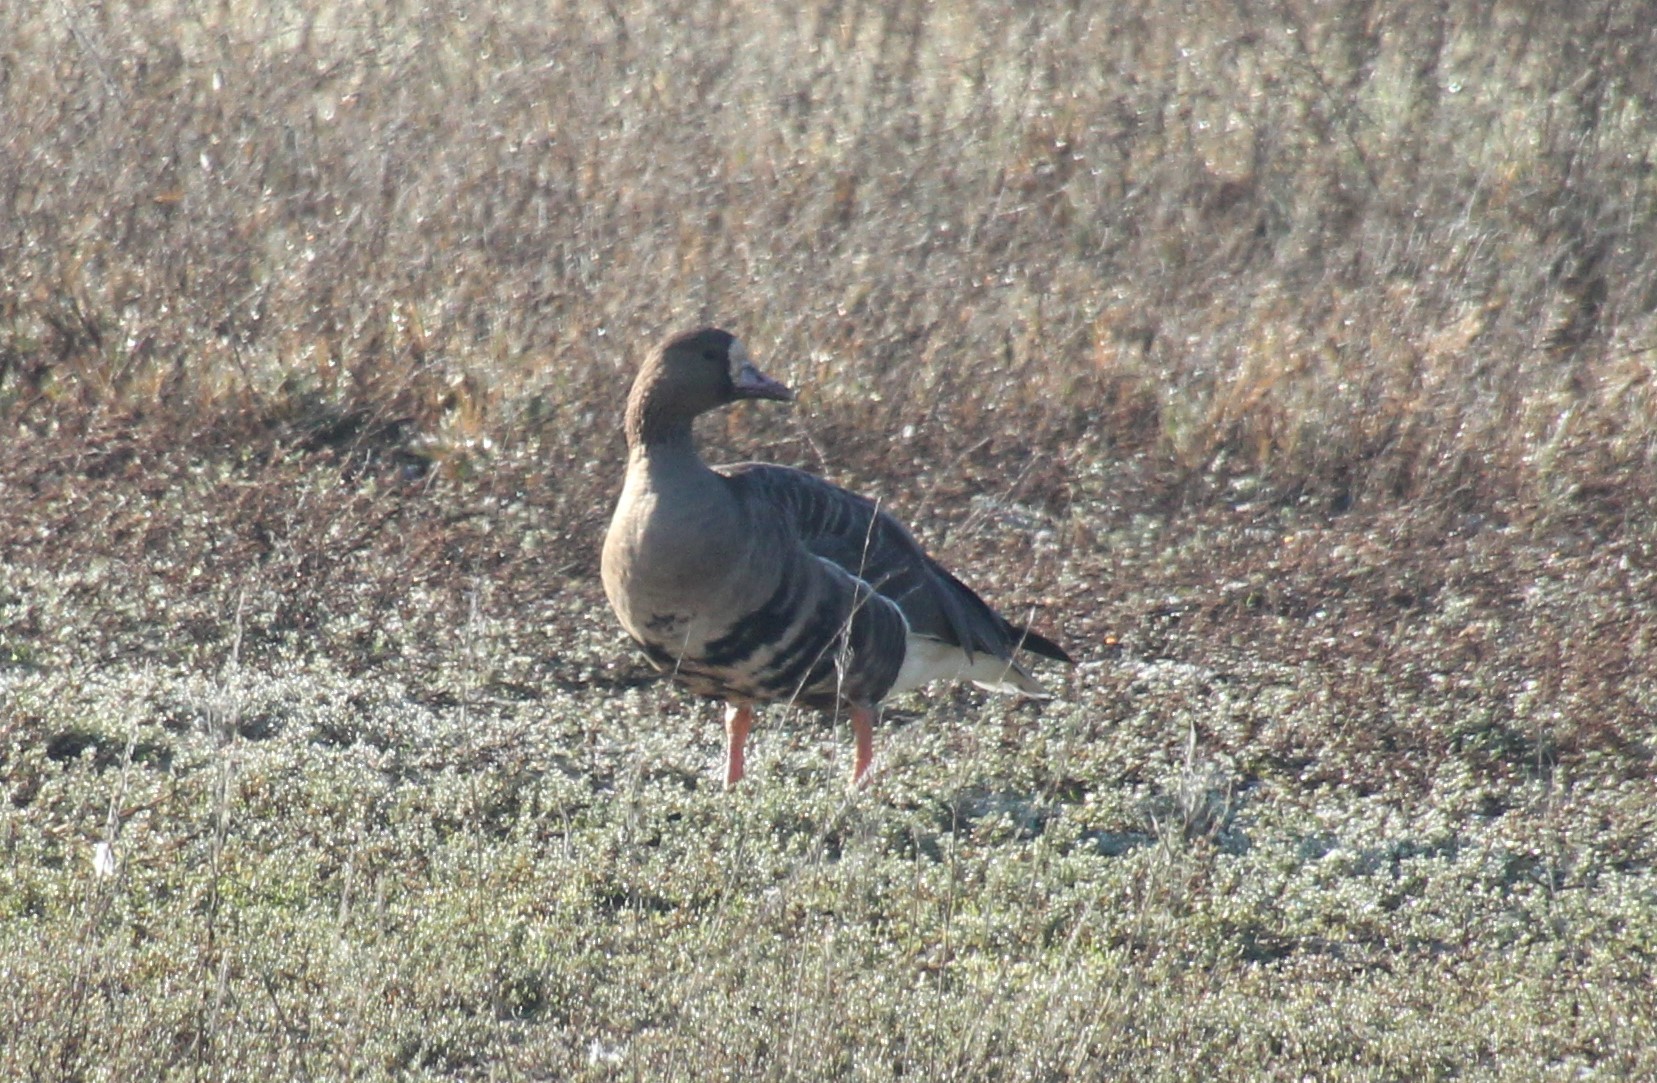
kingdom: Animalia
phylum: Chordata
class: Aves
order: Anseriformes
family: Anatidae
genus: Anser
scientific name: Anser albifrons
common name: Greater white-fronted goose
